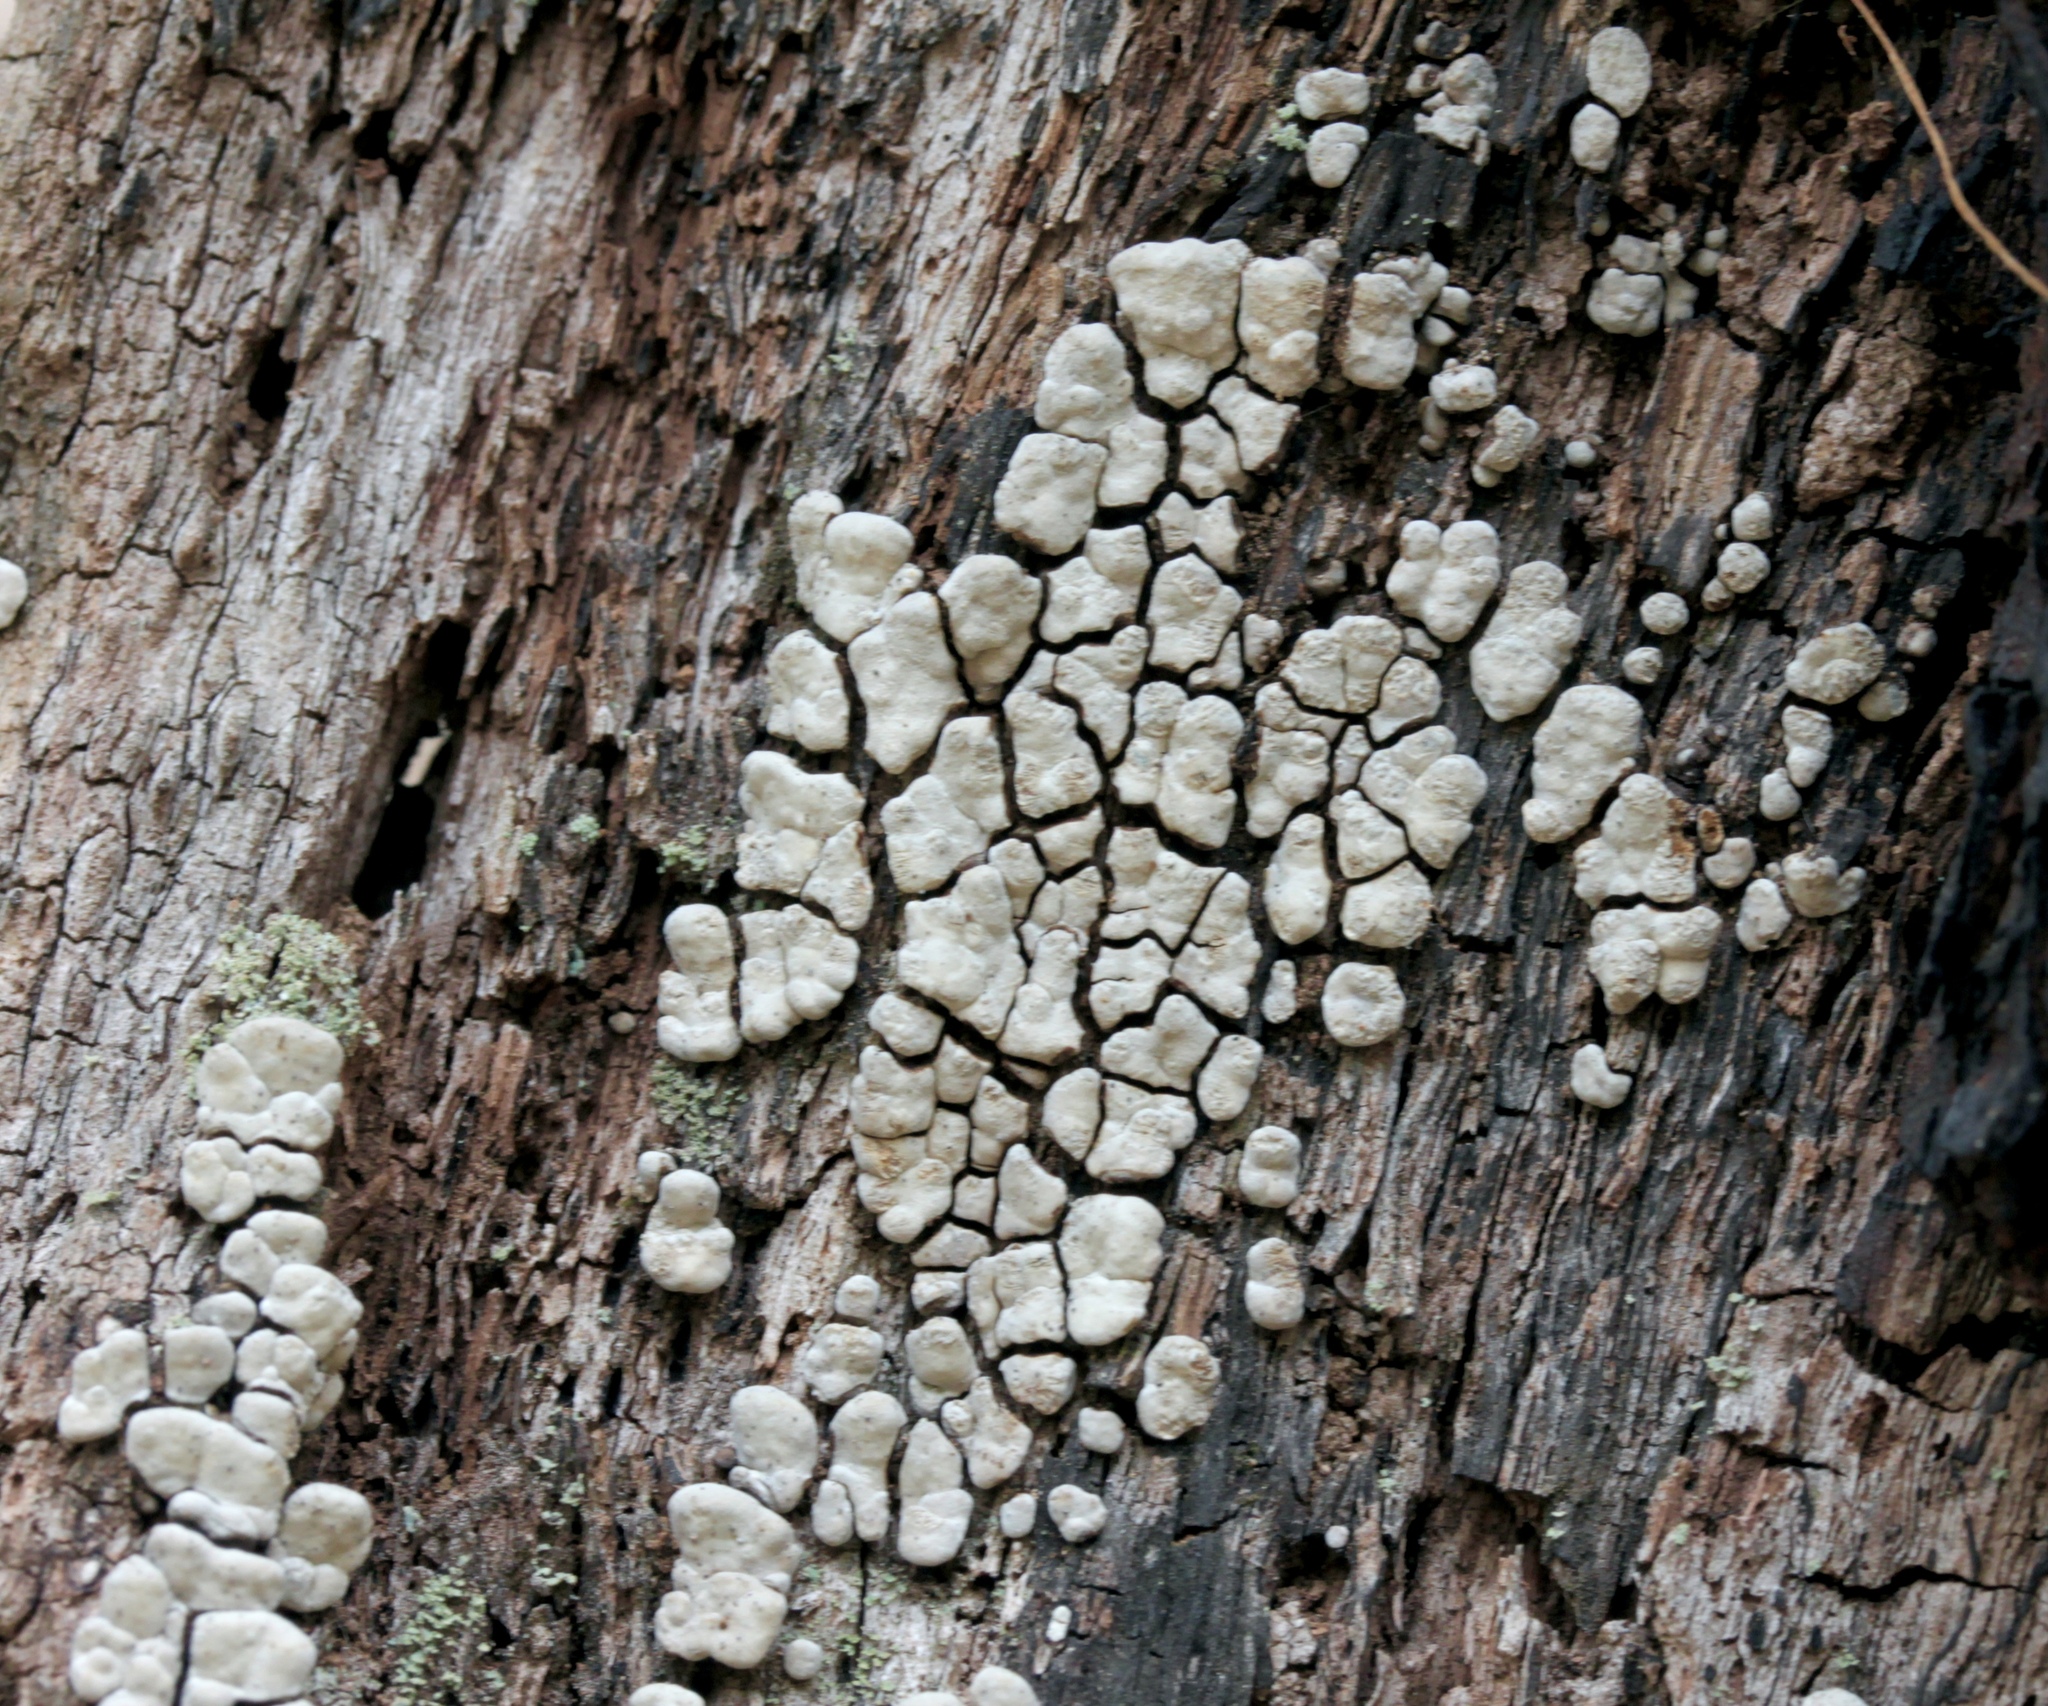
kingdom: Fungi
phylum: Basidiomycota
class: Agaricomycetes
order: Russulales
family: Stereaceae
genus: Xylobolus
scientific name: Xylobolus frustulatus
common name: Ceramic parchment
